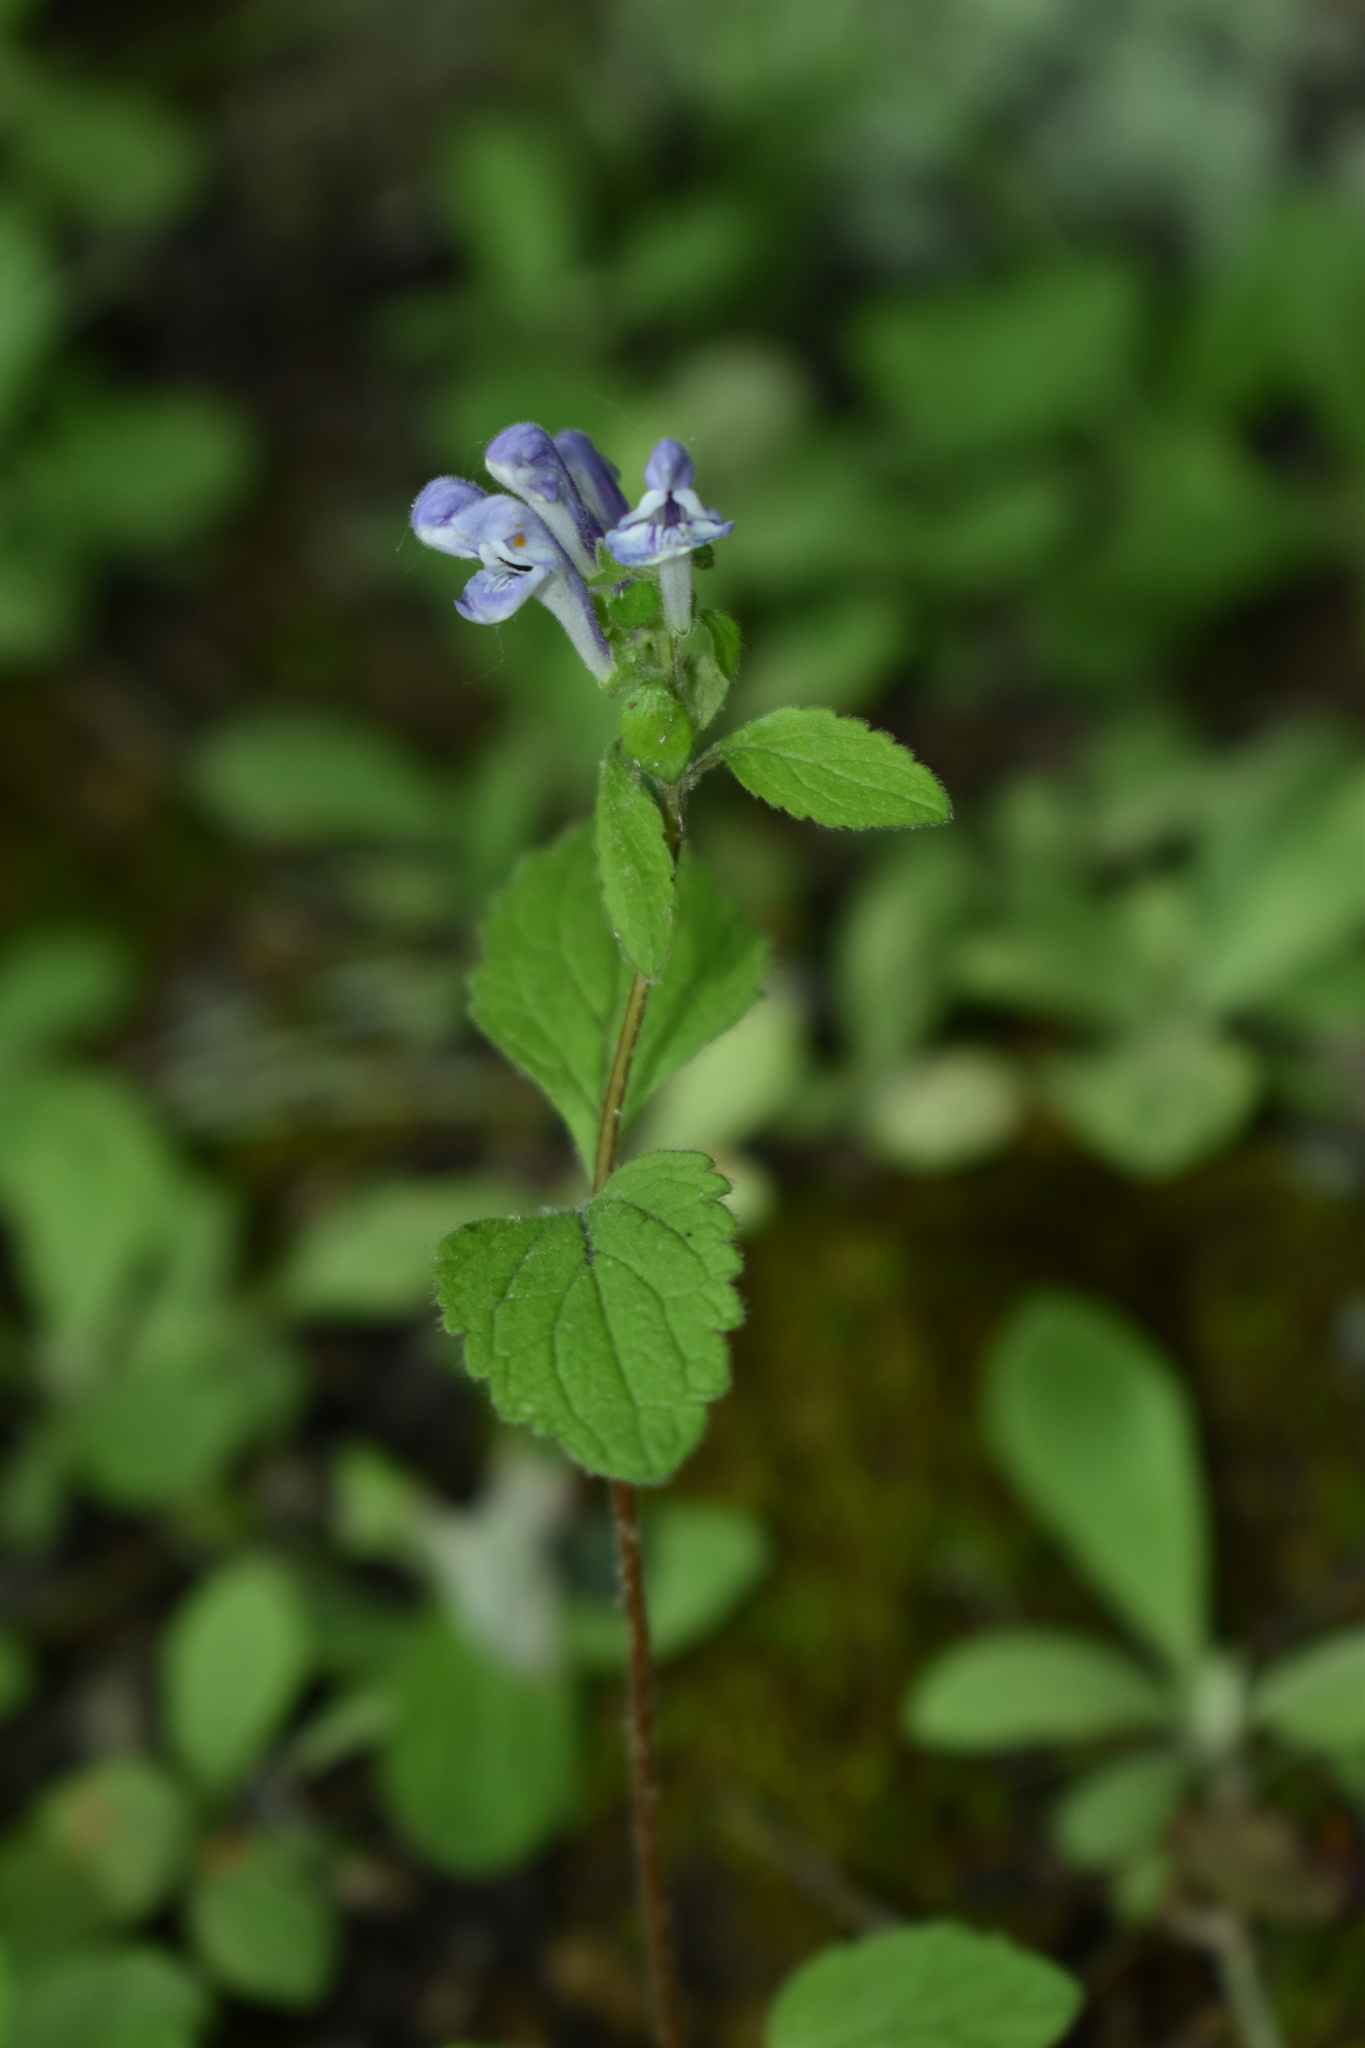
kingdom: Plantae
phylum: Tracheophyta
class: Magnoliopsida
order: Lamiales
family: Lamiaceae
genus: Scutellaria
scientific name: Scutellaria elliptica
